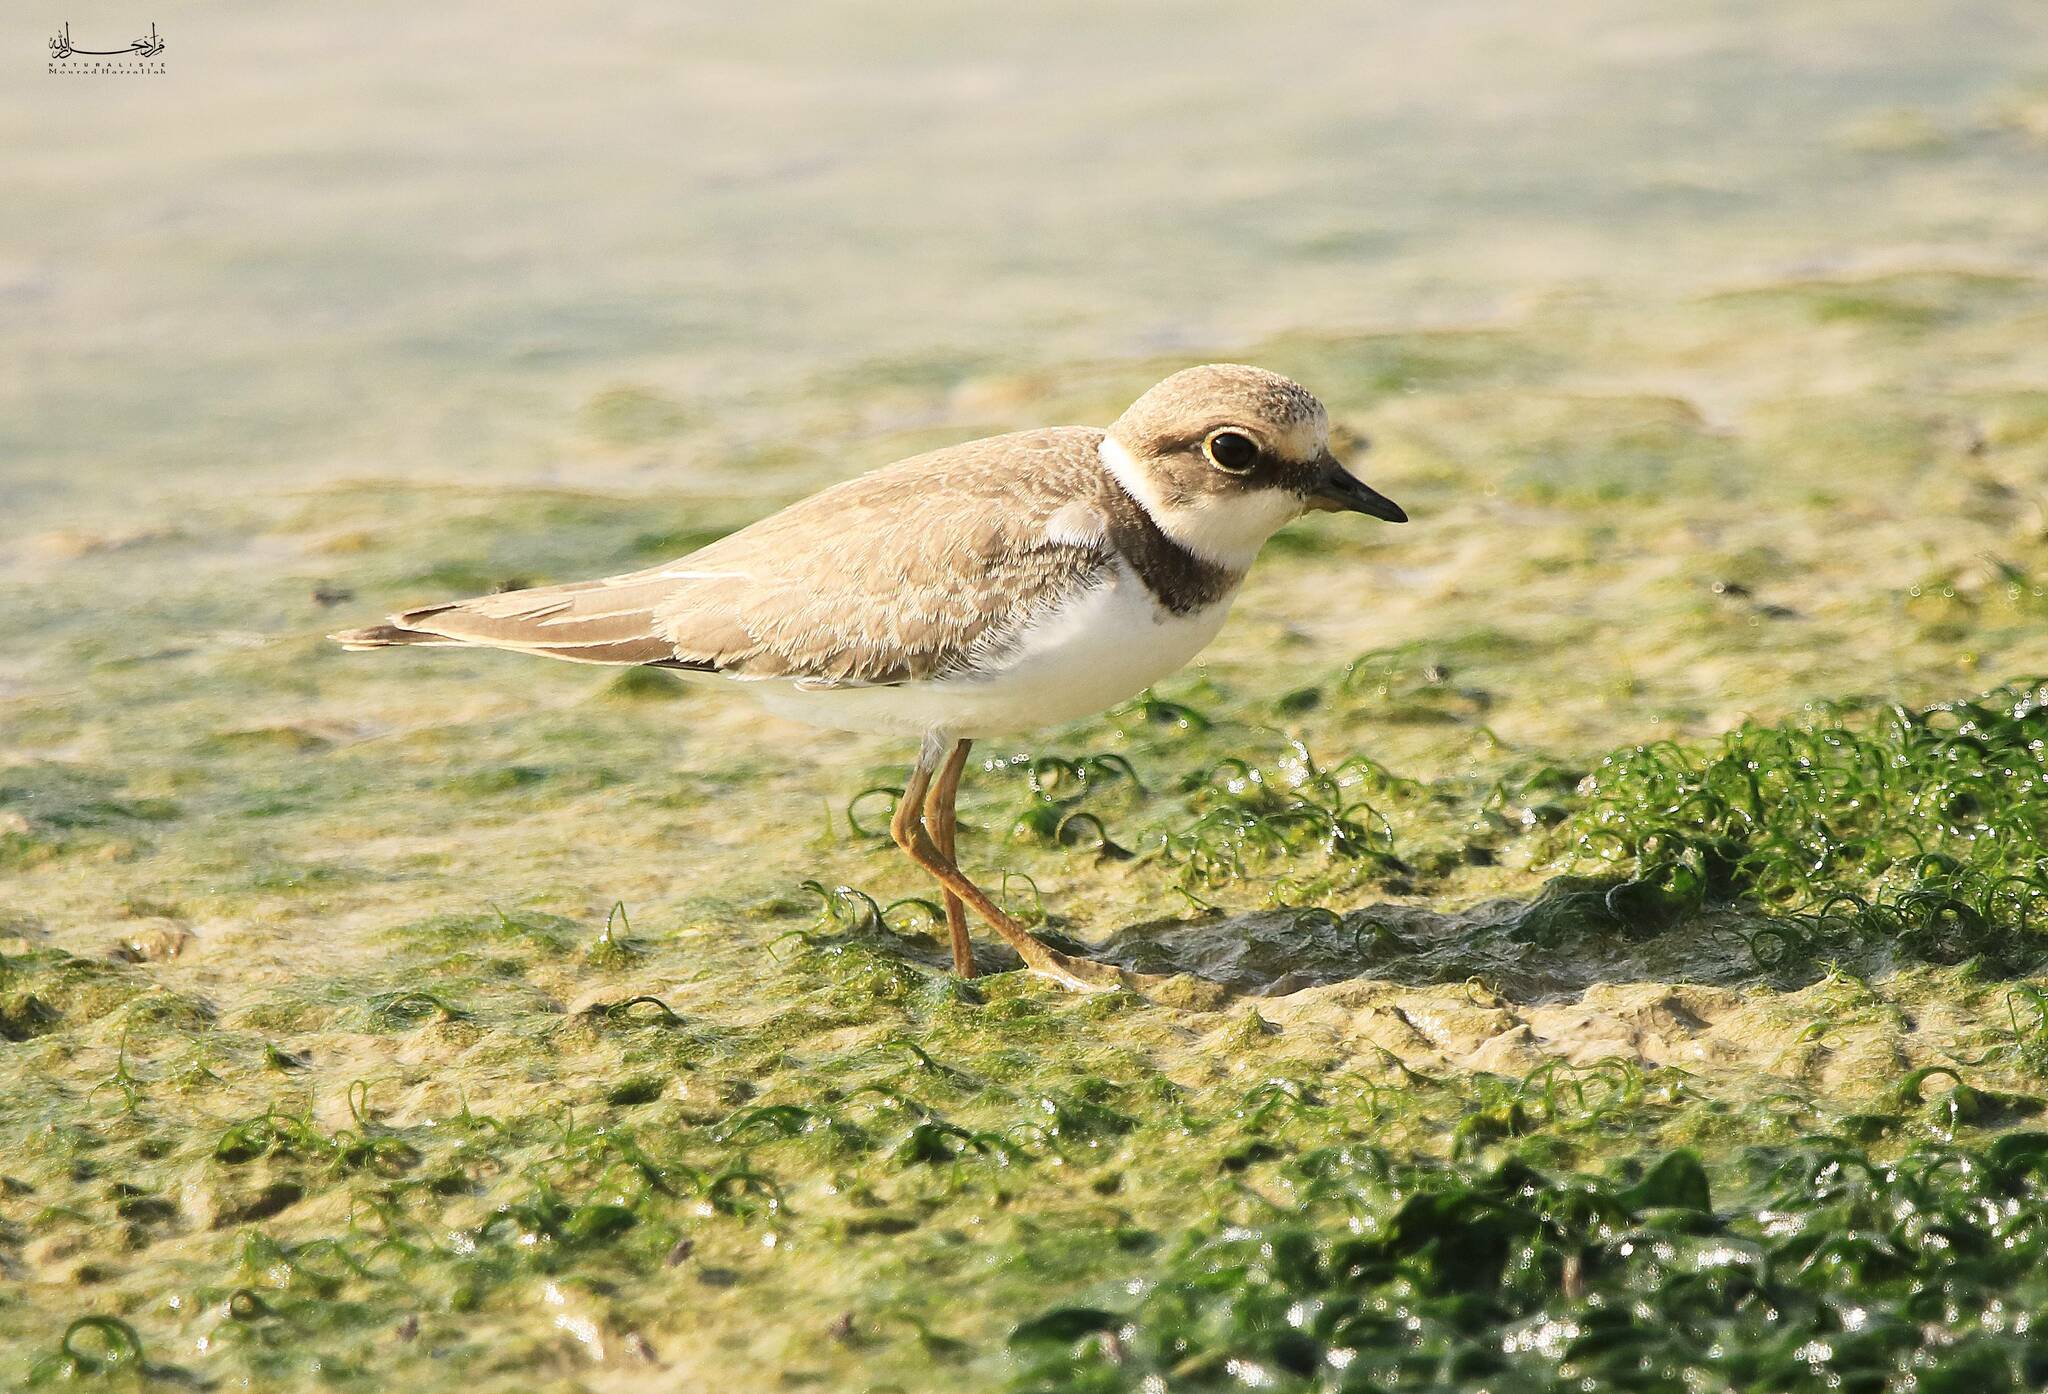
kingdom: Animalia
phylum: Chordata
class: Aves
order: Charadriiformes
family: Charadriidae
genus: Charadrius
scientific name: Charadrius dubius
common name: Little ringed plover
